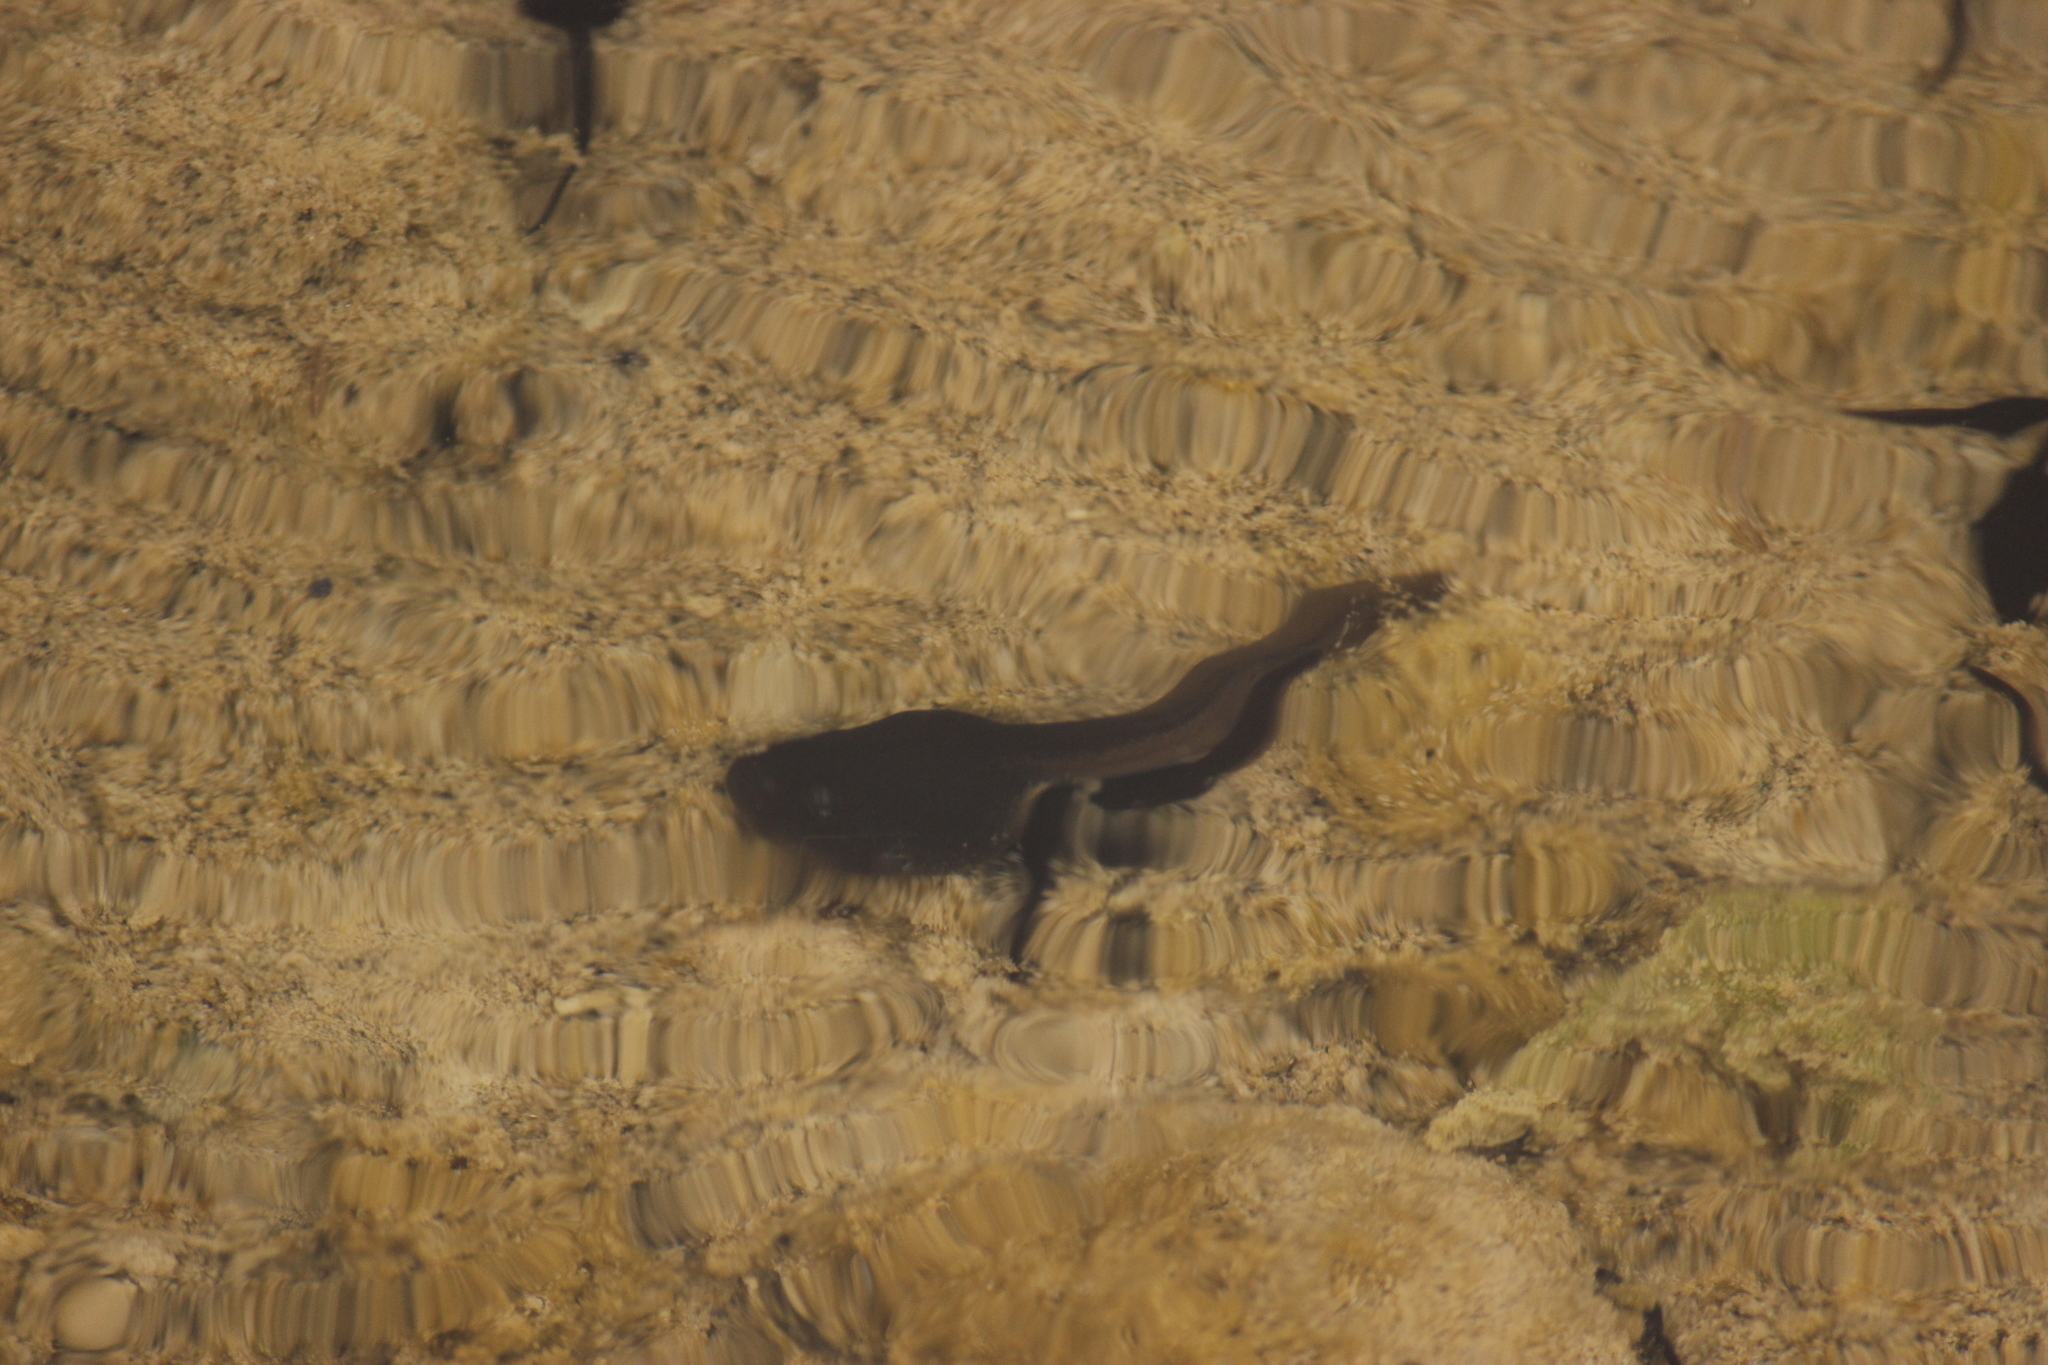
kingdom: Animalia
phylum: Chordata
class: Amphibia
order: Anura
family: Bufonidae
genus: Rhinella
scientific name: Rhinella limensis
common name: Peru coast toad
